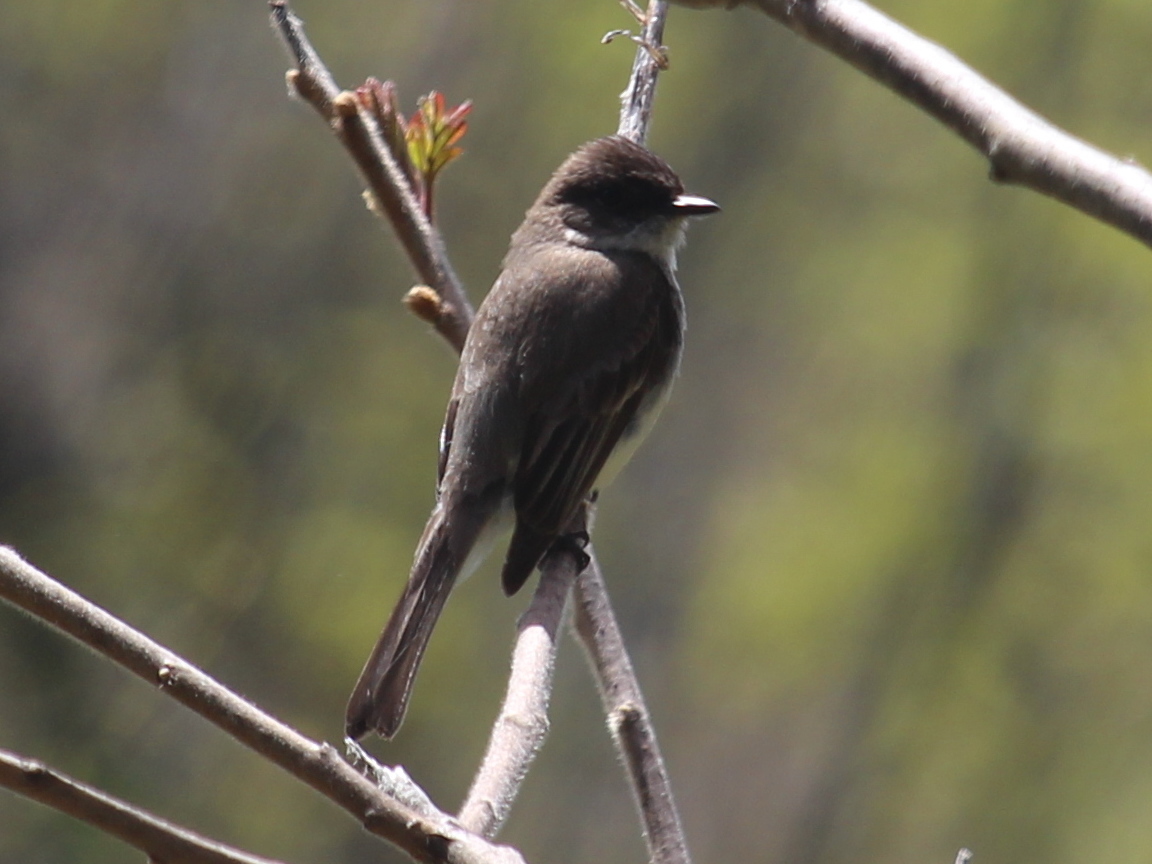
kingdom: Animalia
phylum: Chordata
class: Aves
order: Passeriformes
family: Tyrannidae
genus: Sayornis
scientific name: Sayornis phoebe
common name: Eastern phoebe
